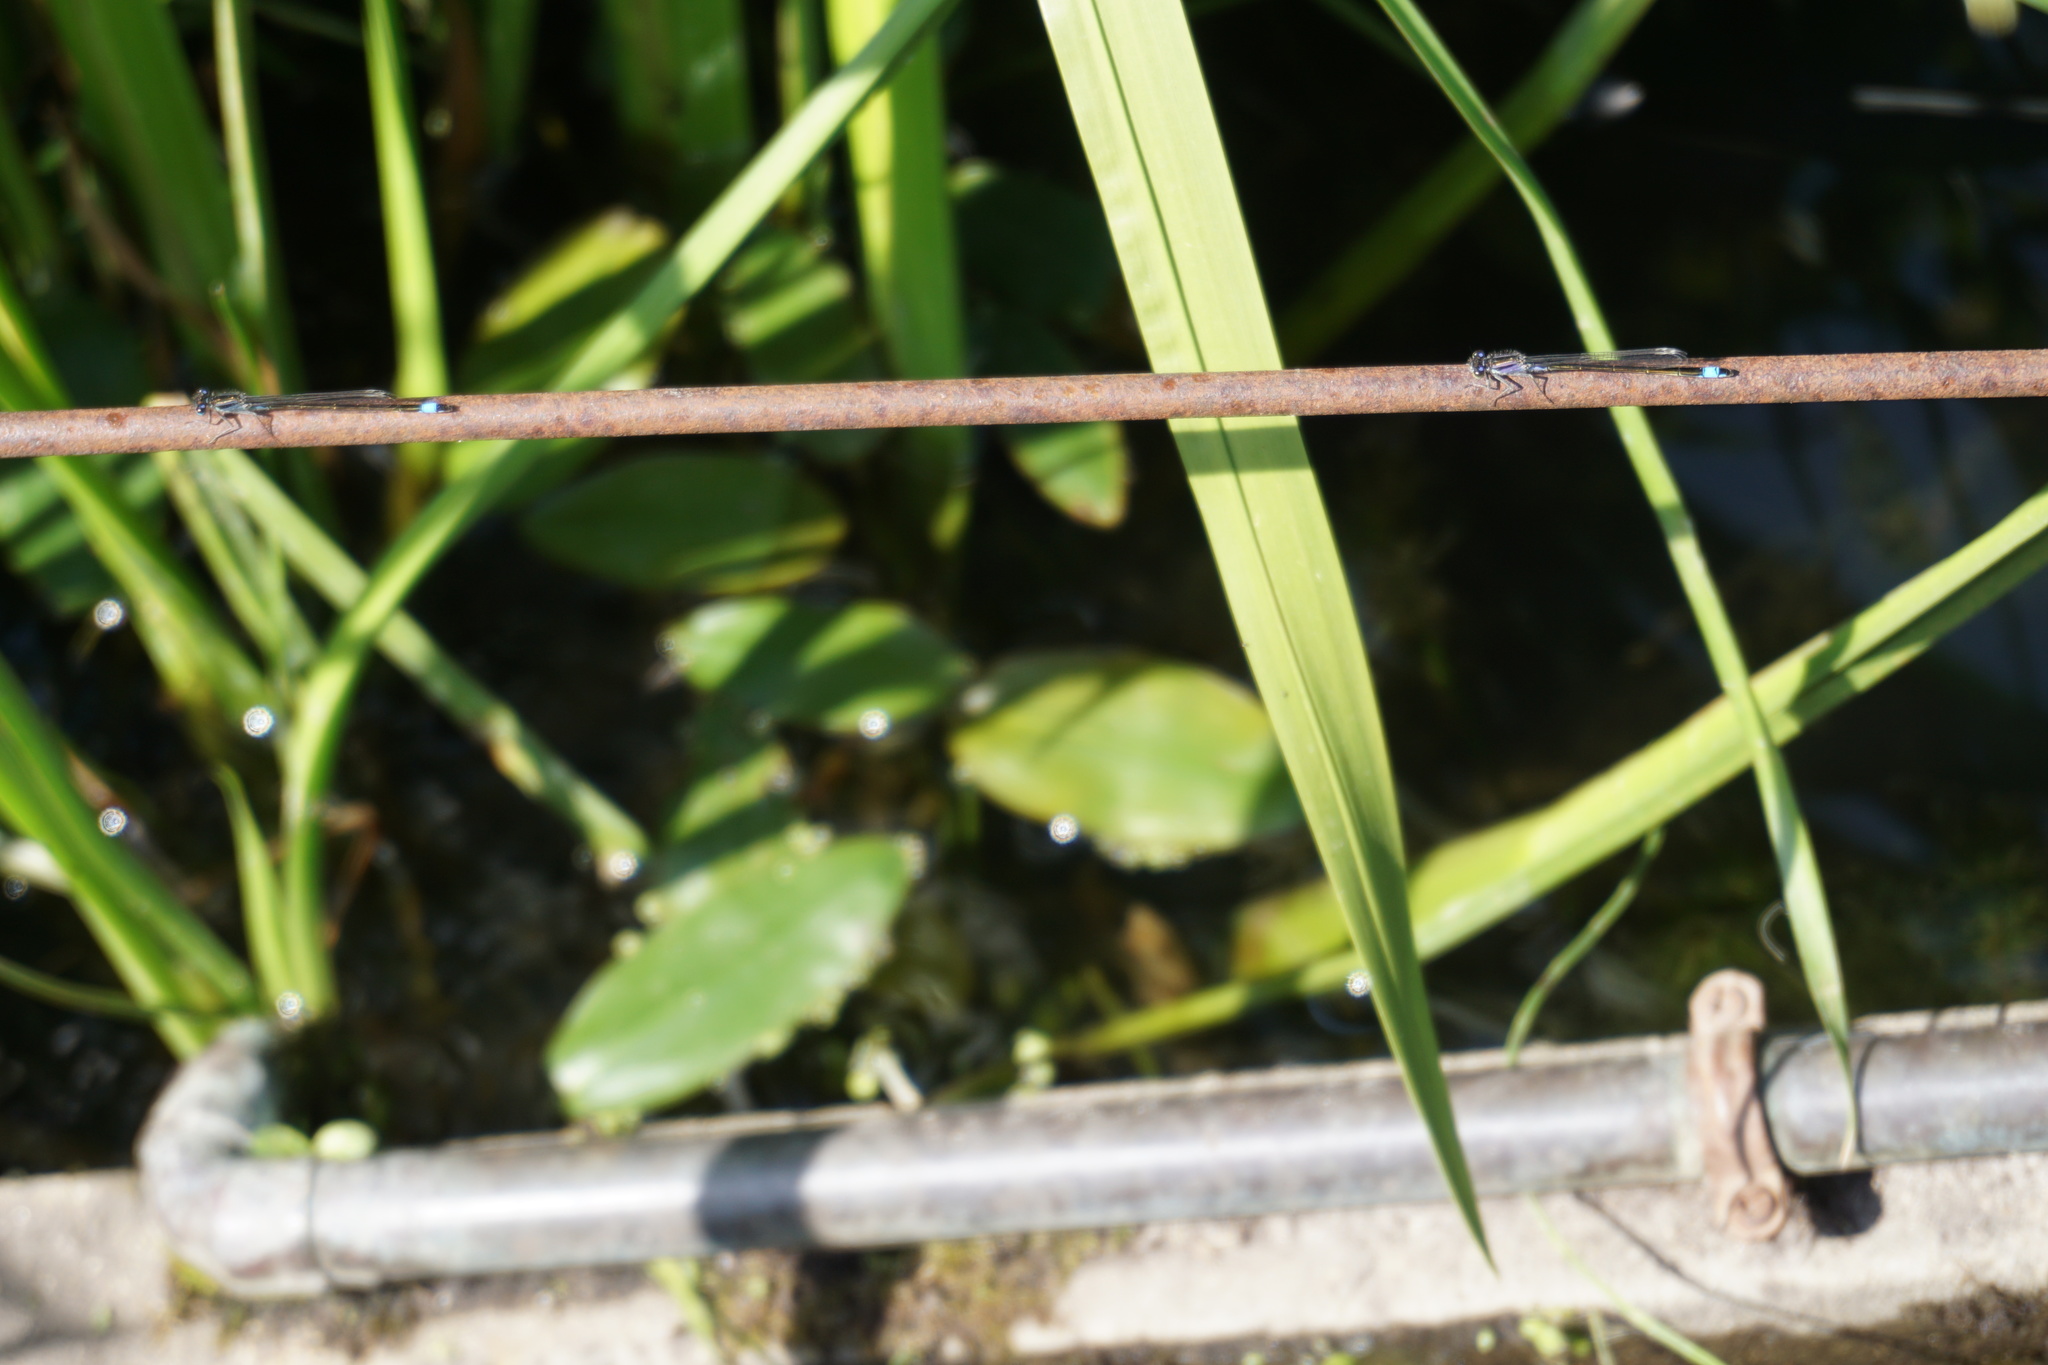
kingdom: Animalia
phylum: Arthropoda
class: Insecta
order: Odonata
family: Coenagrionidae
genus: Ischnura
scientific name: Ischnura elegans
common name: Blue-tailed damselfly
